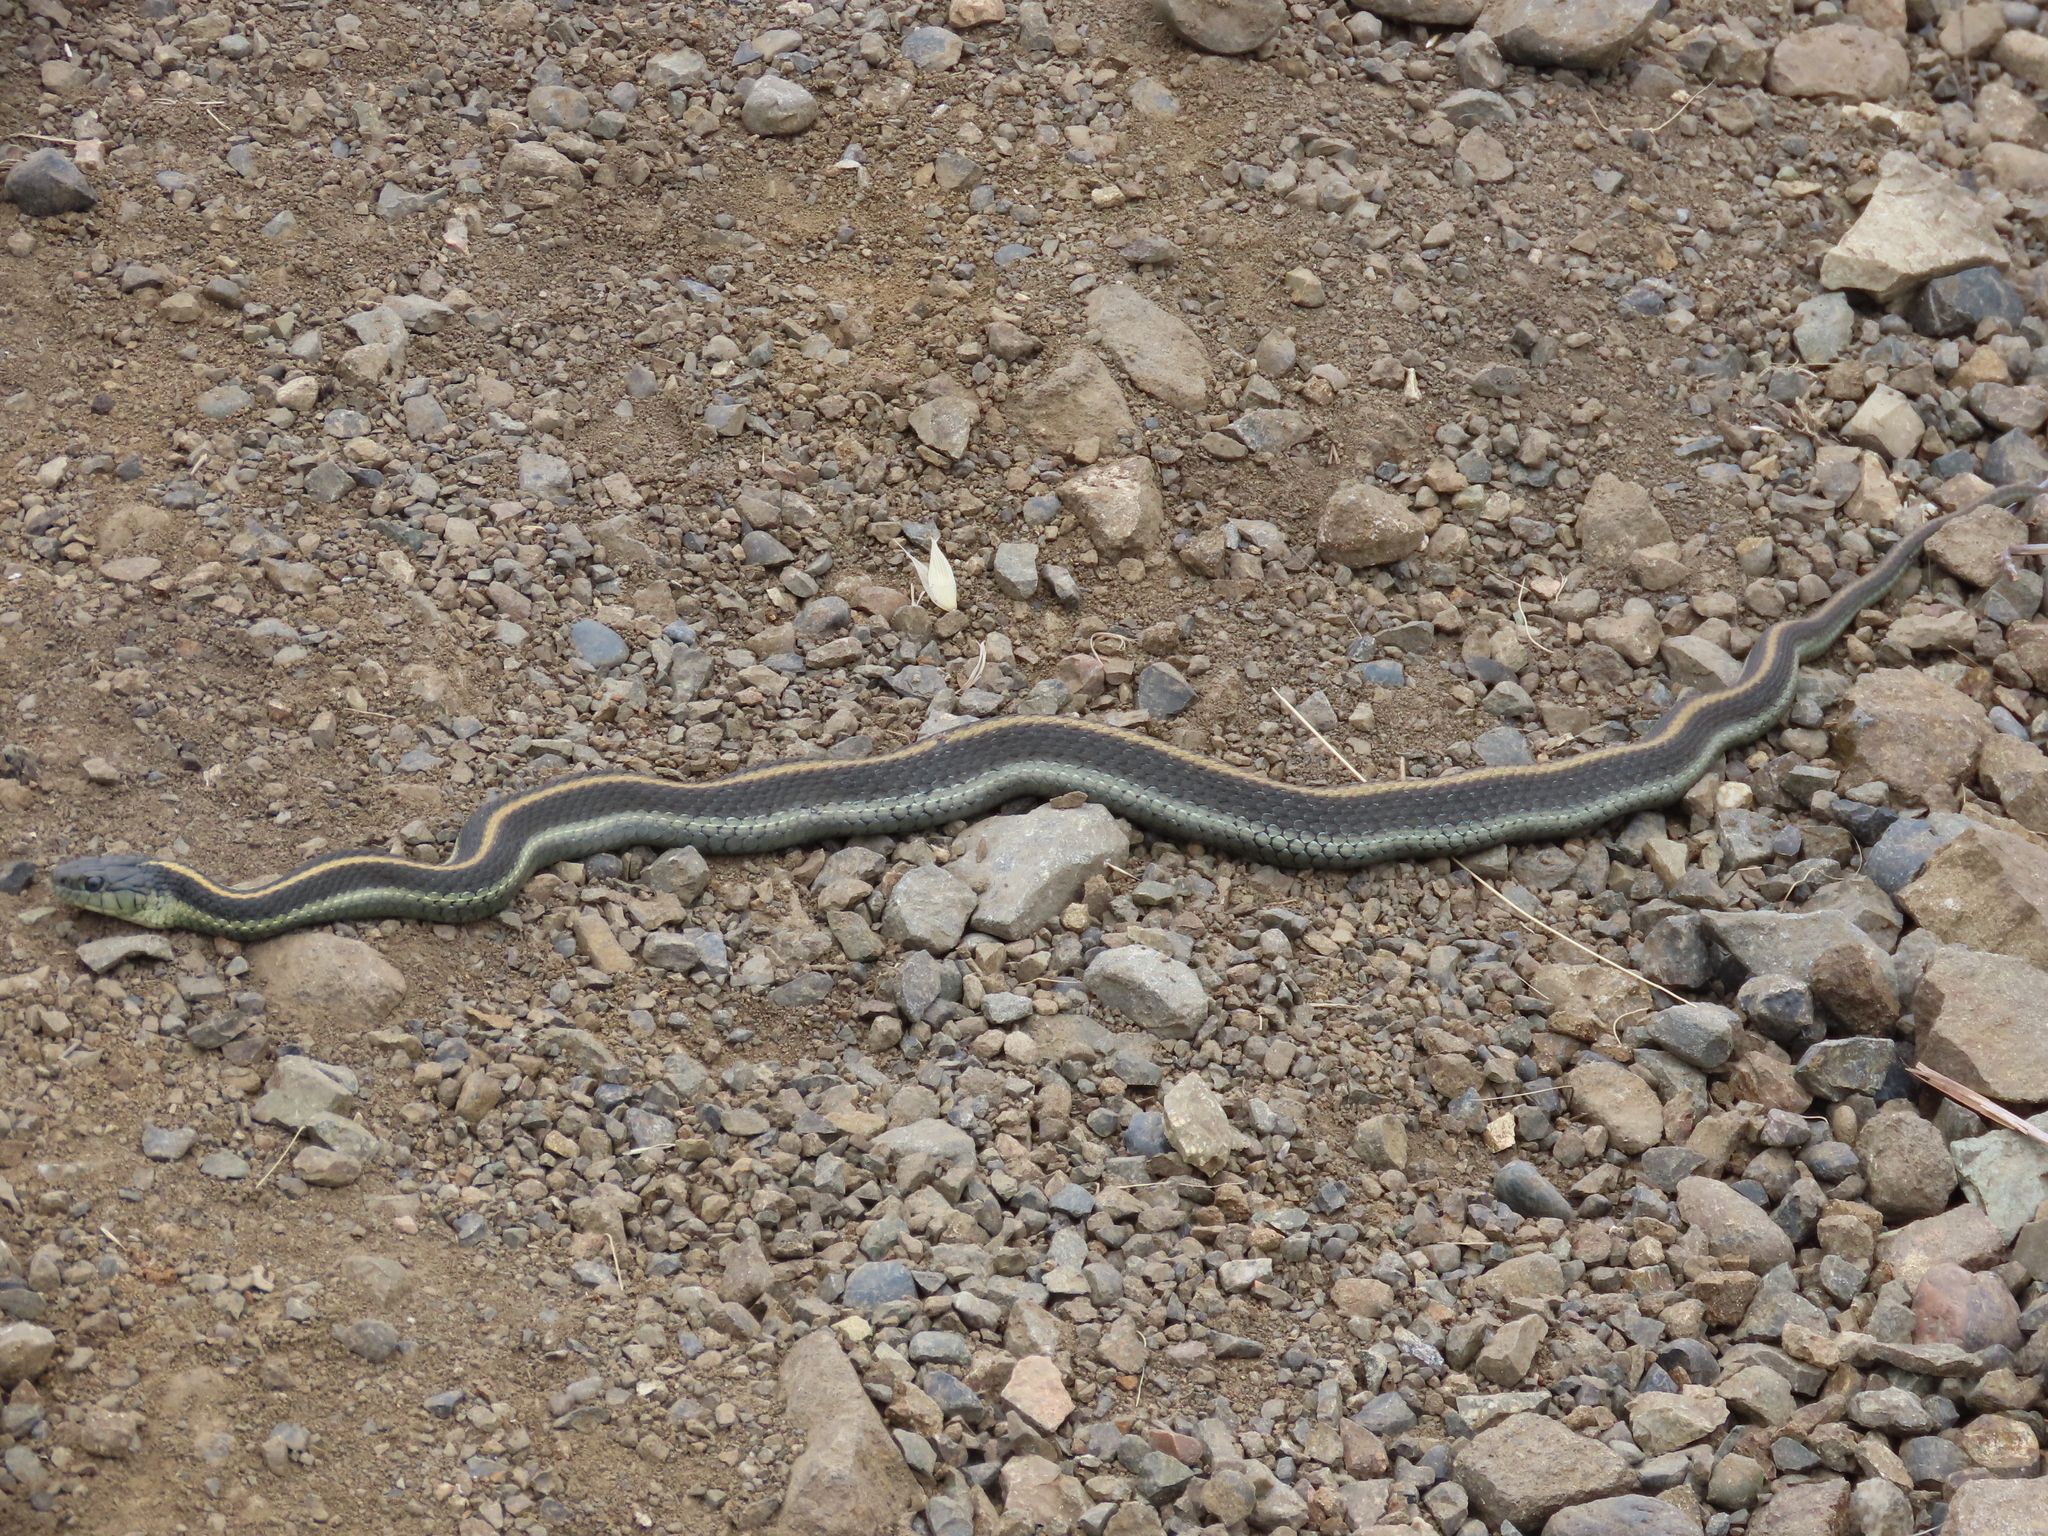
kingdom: Animalia
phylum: Chordata
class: Squamata
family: Colubridae
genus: Thamnophis
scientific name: Thamnophis atratus
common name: Pacific coast aquatic garter snake
